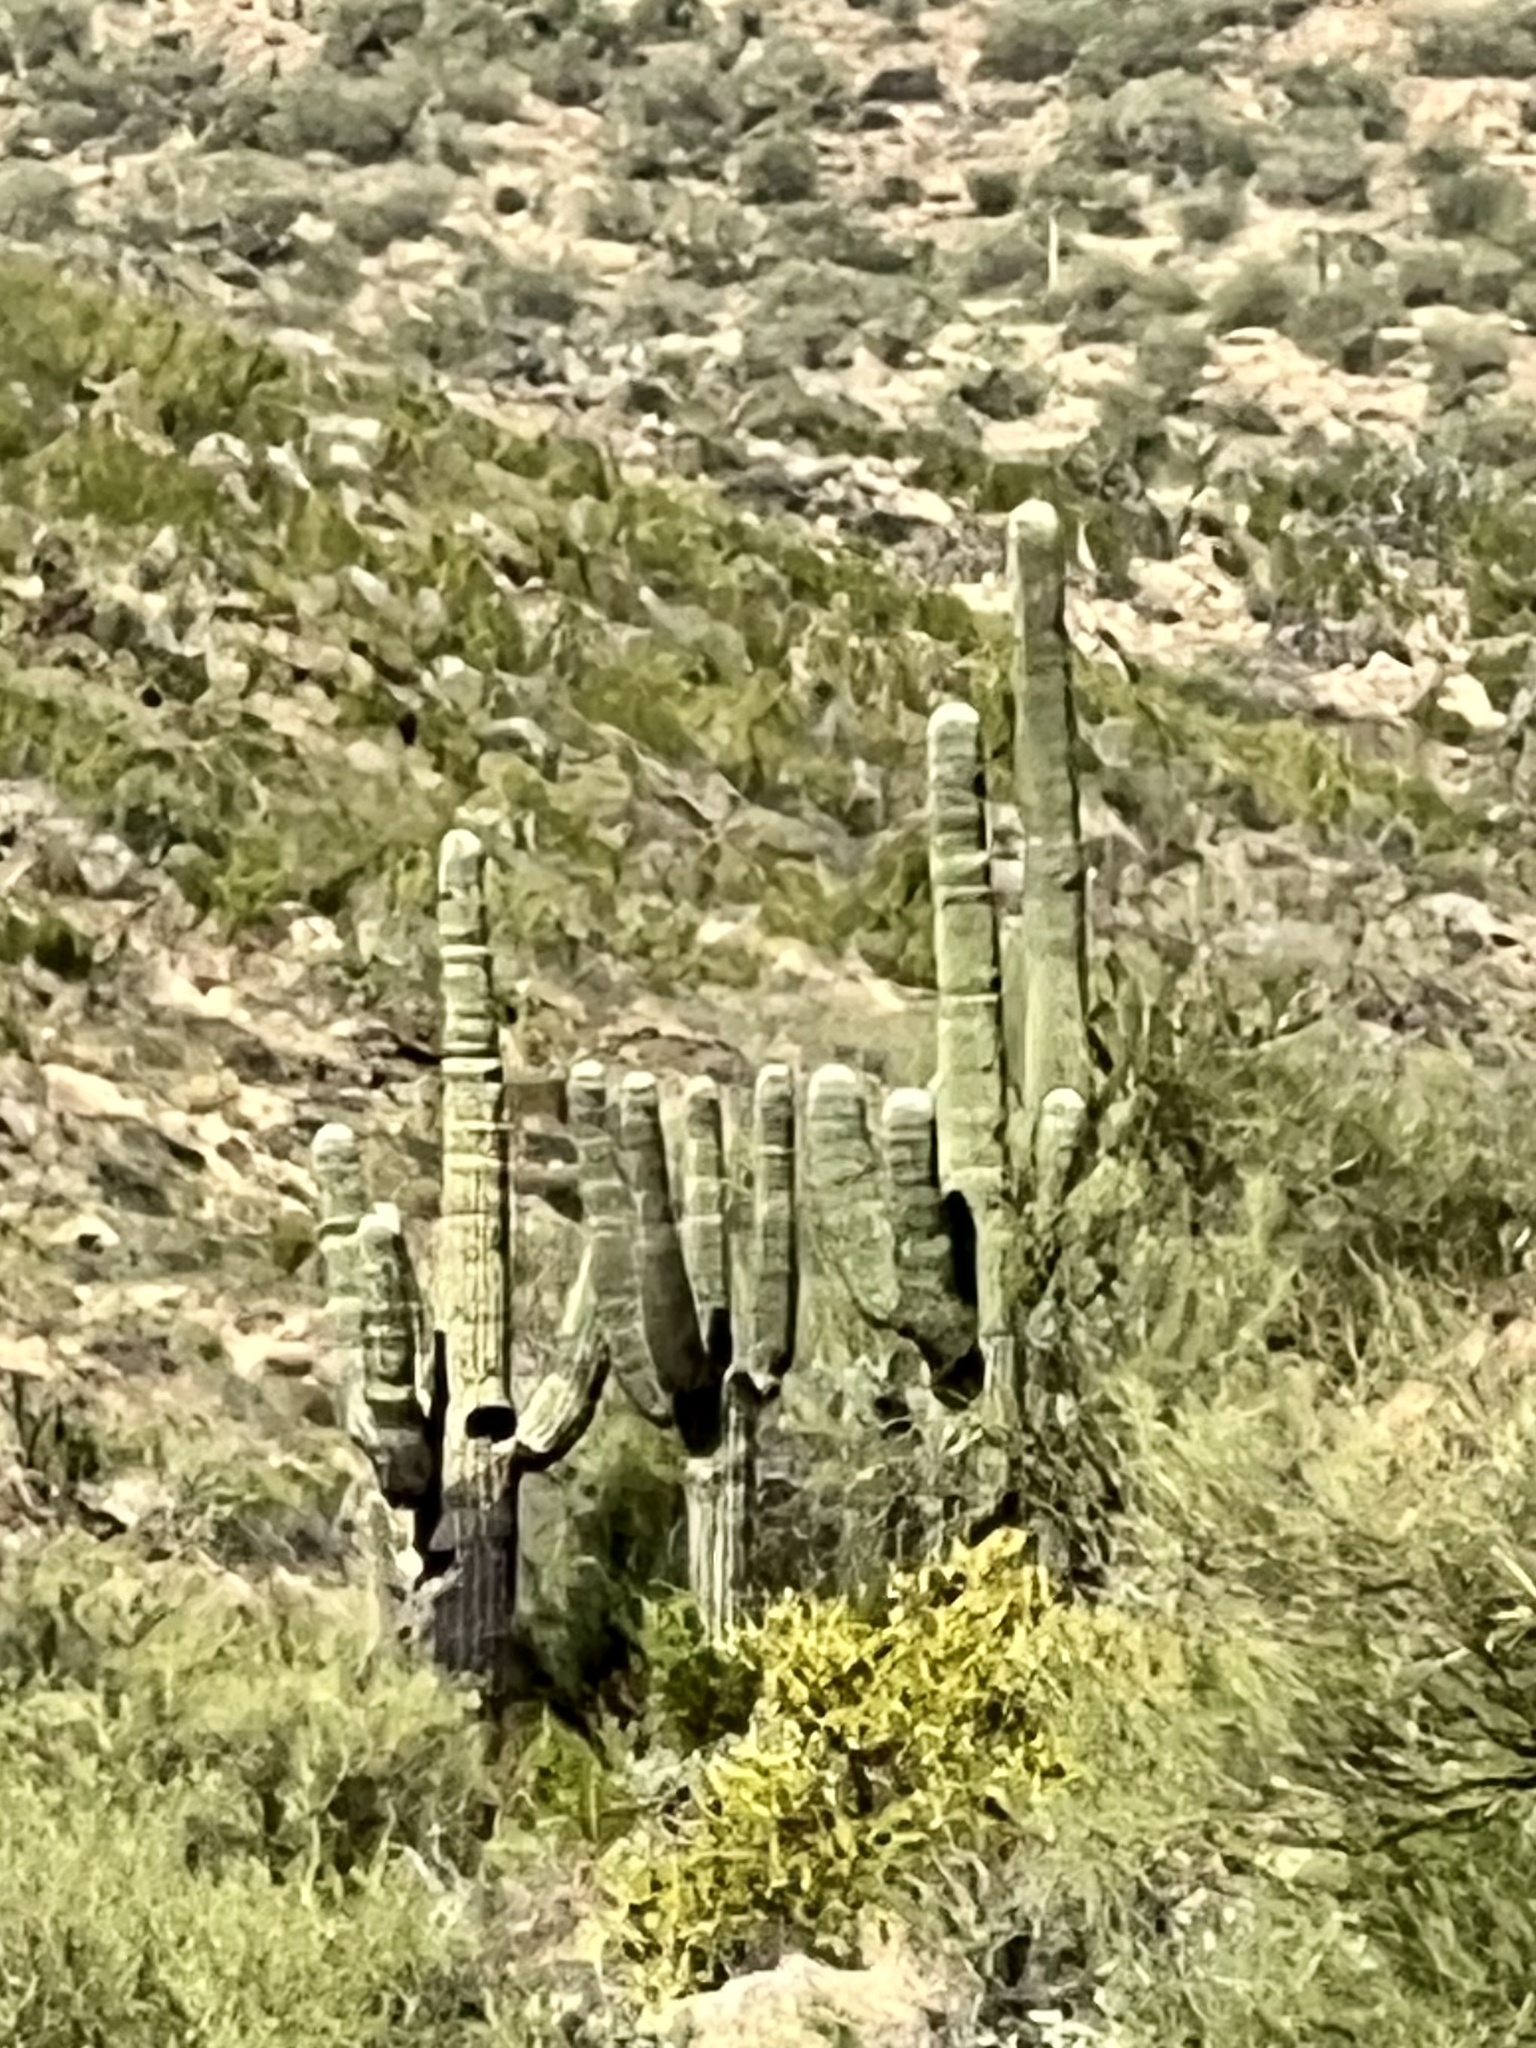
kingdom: Plantae
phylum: Tracheophyta
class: Magnoliopsida
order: Caryophyllales
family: Cactaceae
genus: Carnegiea
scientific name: Carnegiea gigantea
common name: Saguaro
